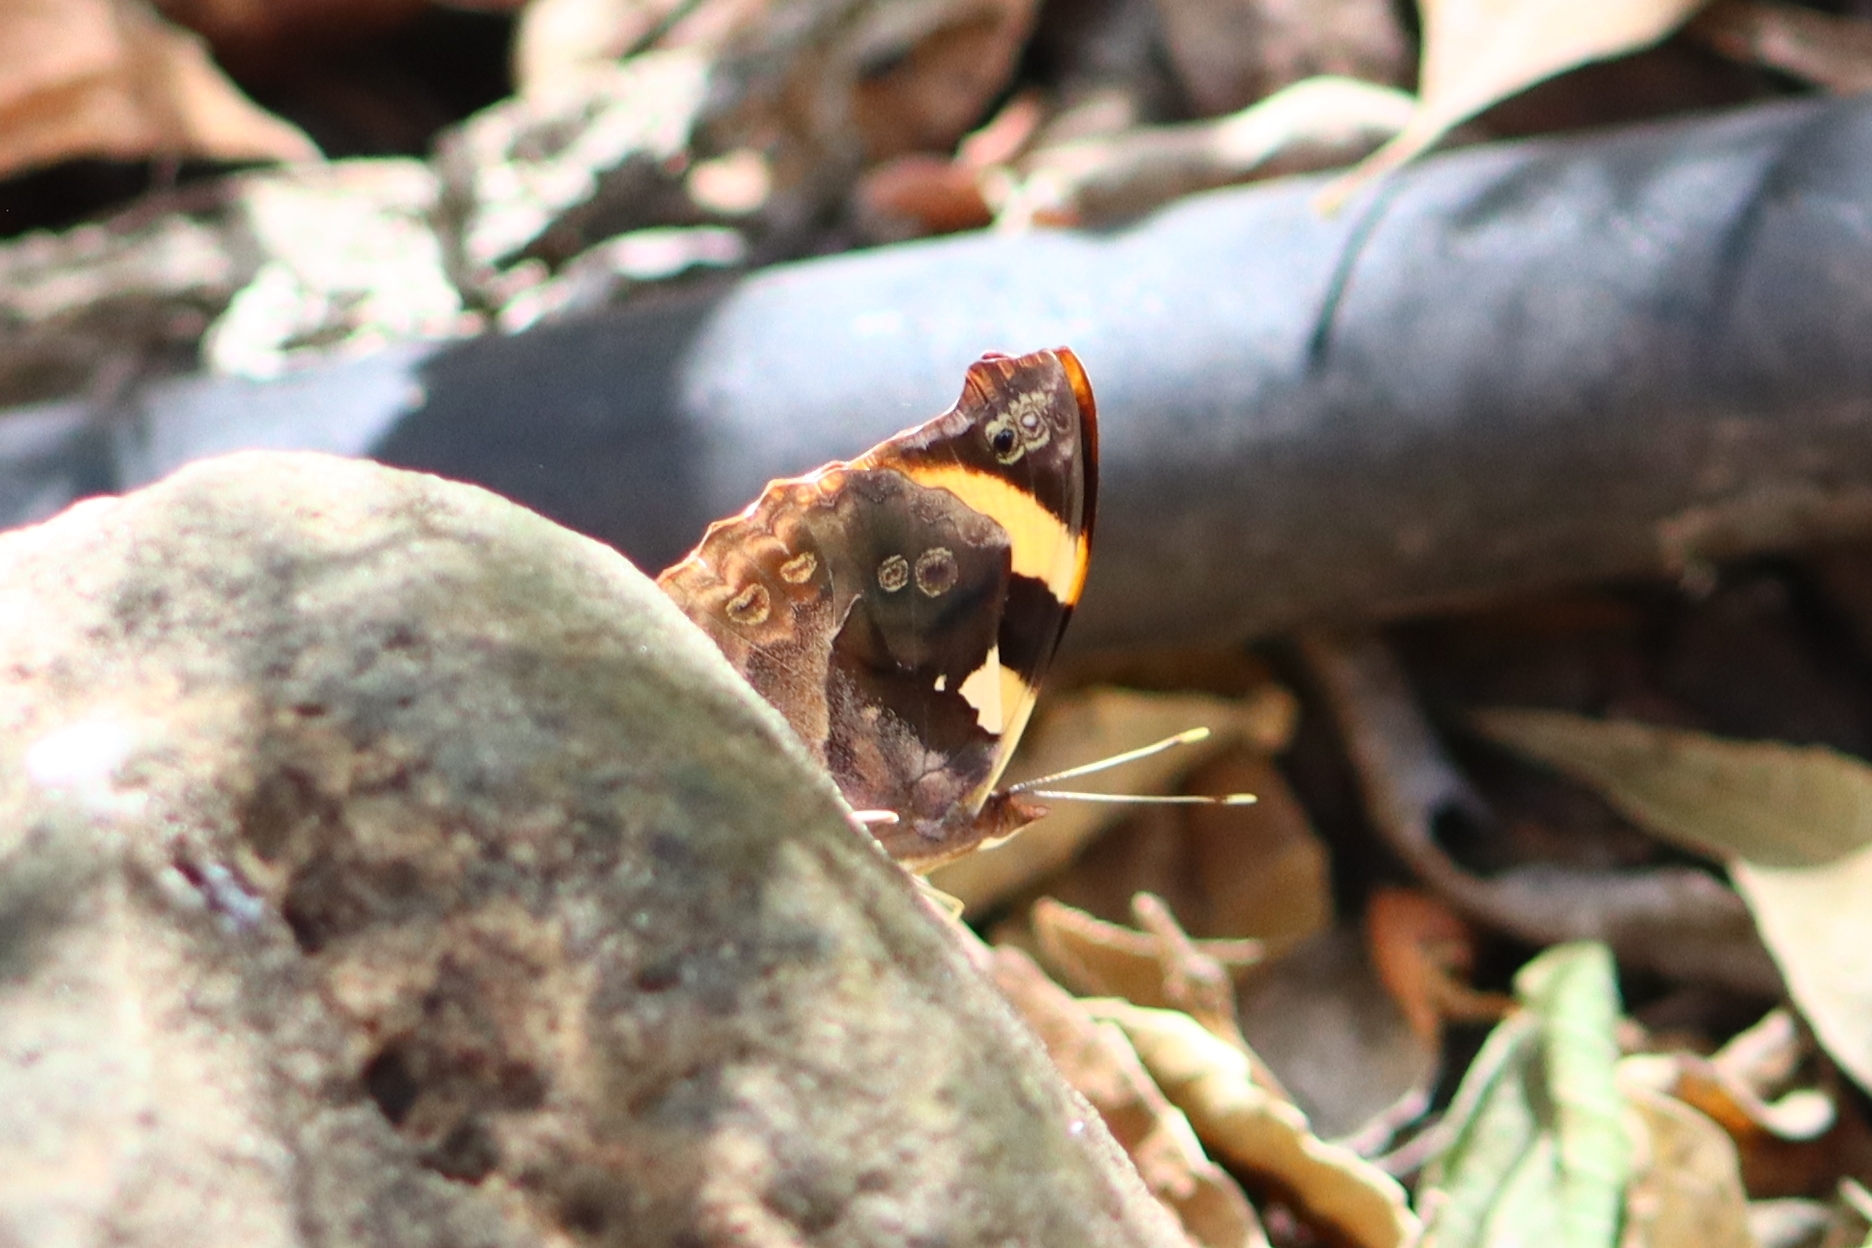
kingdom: Animalia
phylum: Arthropoda
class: Insecta
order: Lepidoptera
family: Nymphalidae
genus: Epiphile
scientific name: Epiphile adrasta
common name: Common banner
